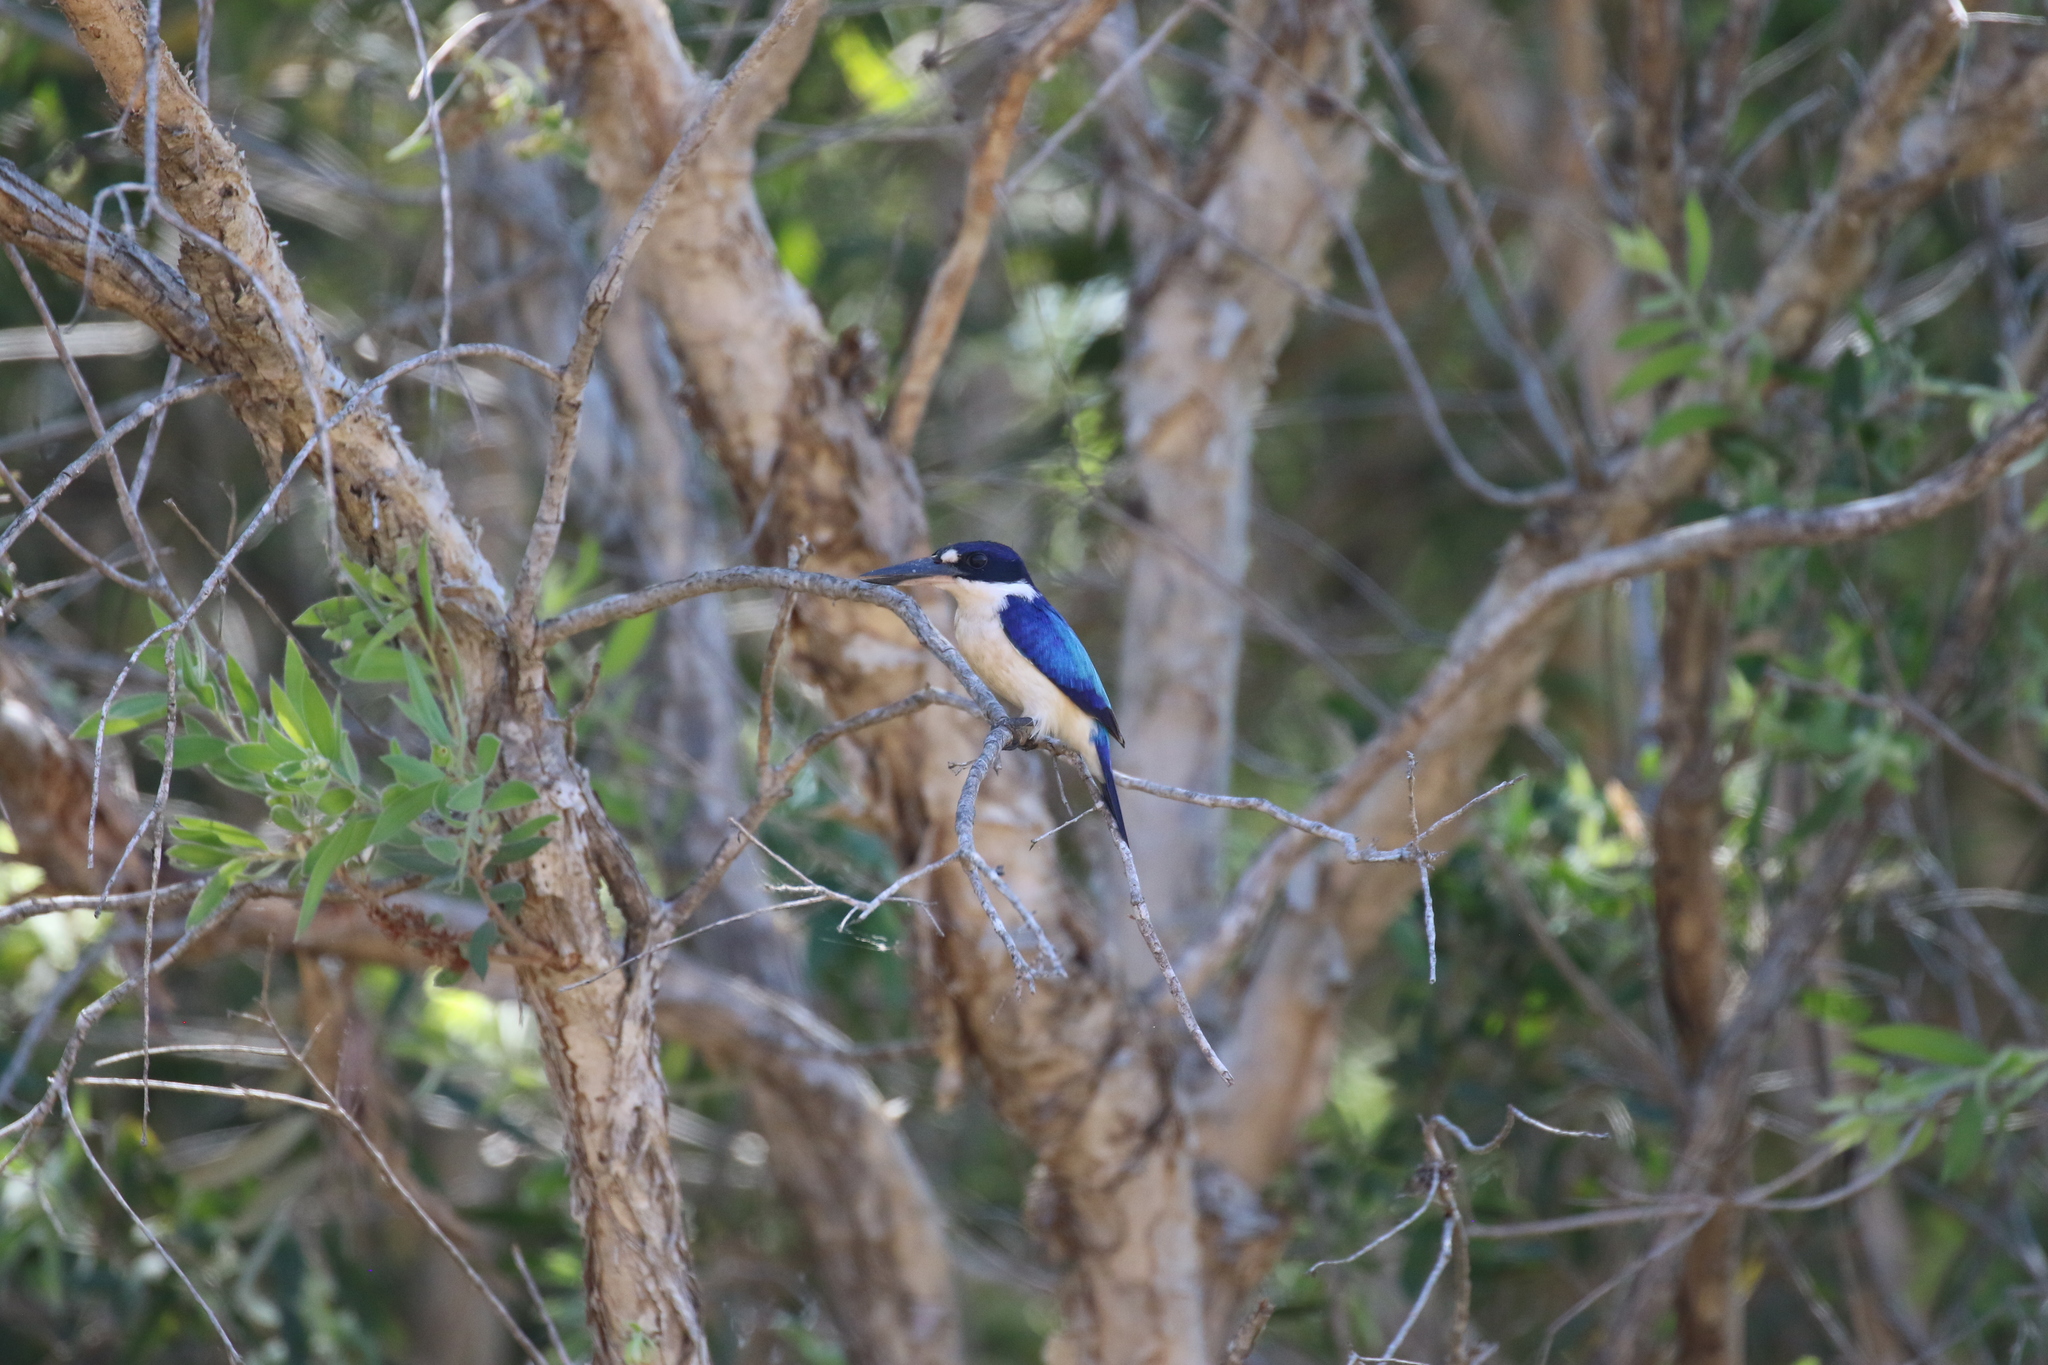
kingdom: Animalia
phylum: Chordata
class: Aves
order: Coraciiformes
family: Alcedinidae
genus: Todiramphus
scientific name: Todiramphus macleayii
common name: Forest kingfisher
